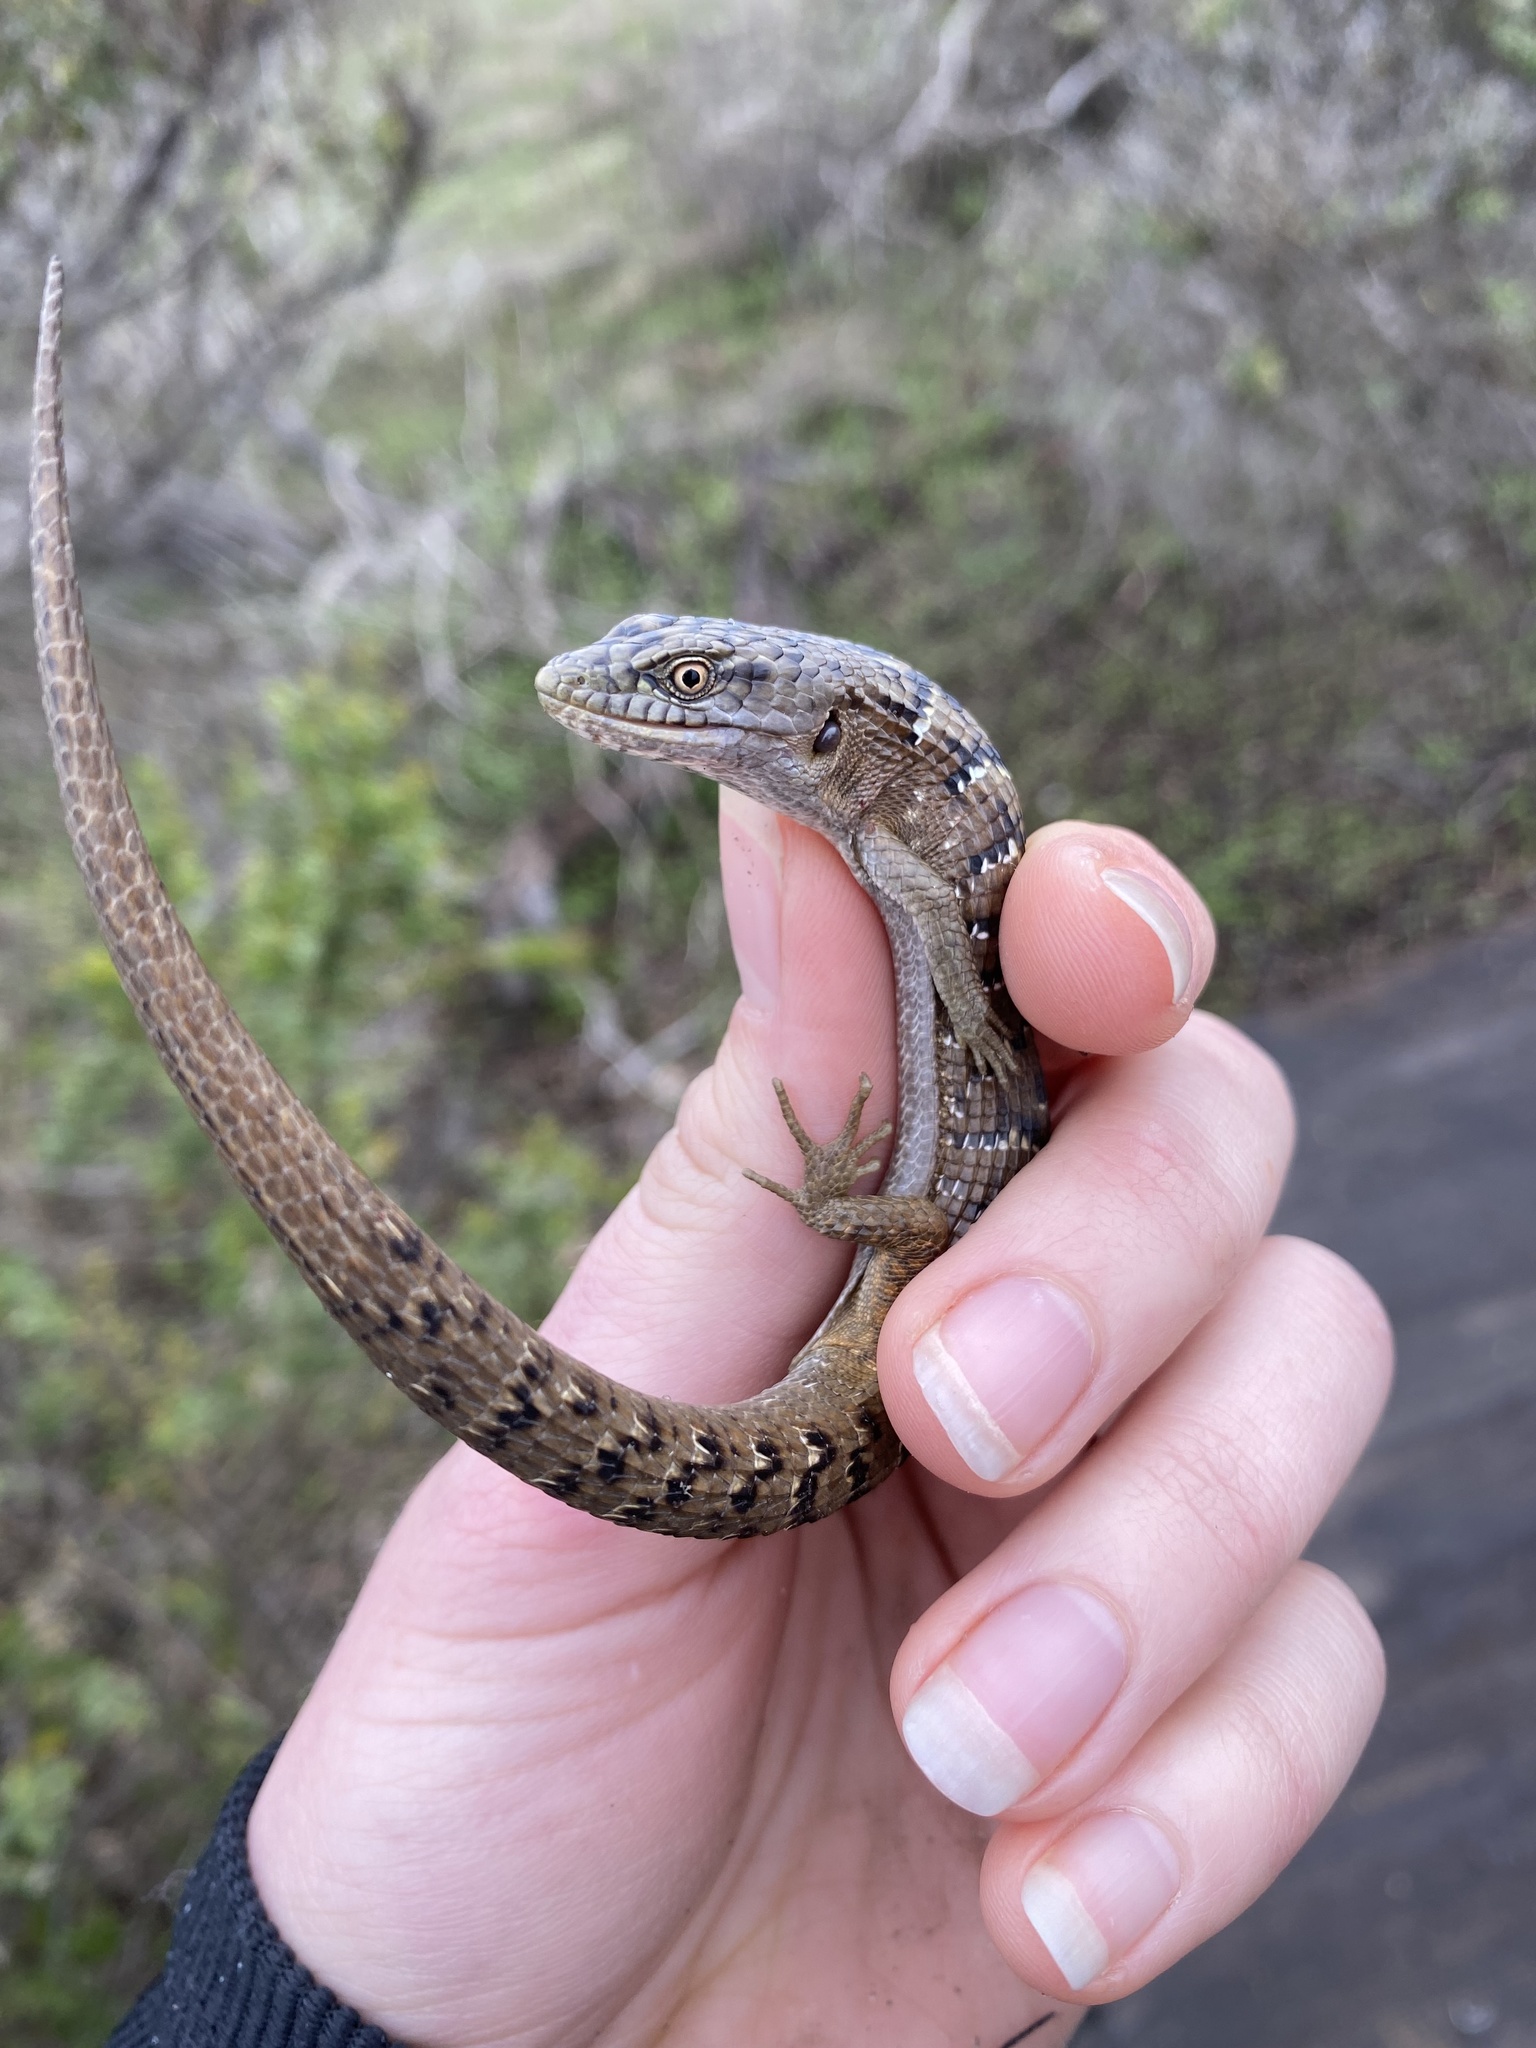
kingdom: Animalia
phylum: Chordata
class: Squamata
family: Anguidae
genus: Elgaria
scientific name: Elgaria multicarinata
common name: Southern alligator lizard
